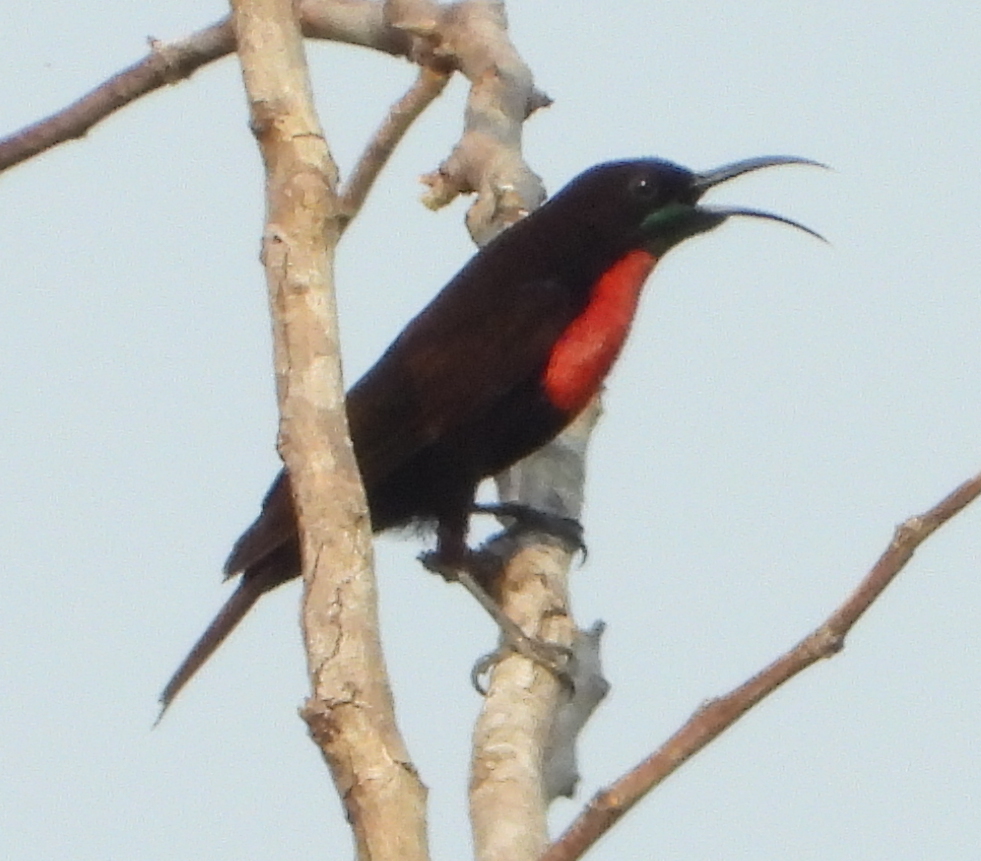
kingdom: Animalia
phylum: Chordata
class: Aves
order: Passeriformes
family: Nectariniidae
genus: Chalcomitra
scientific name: Chalcomitra senegalensis
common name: Scarlet-chested sunbird
